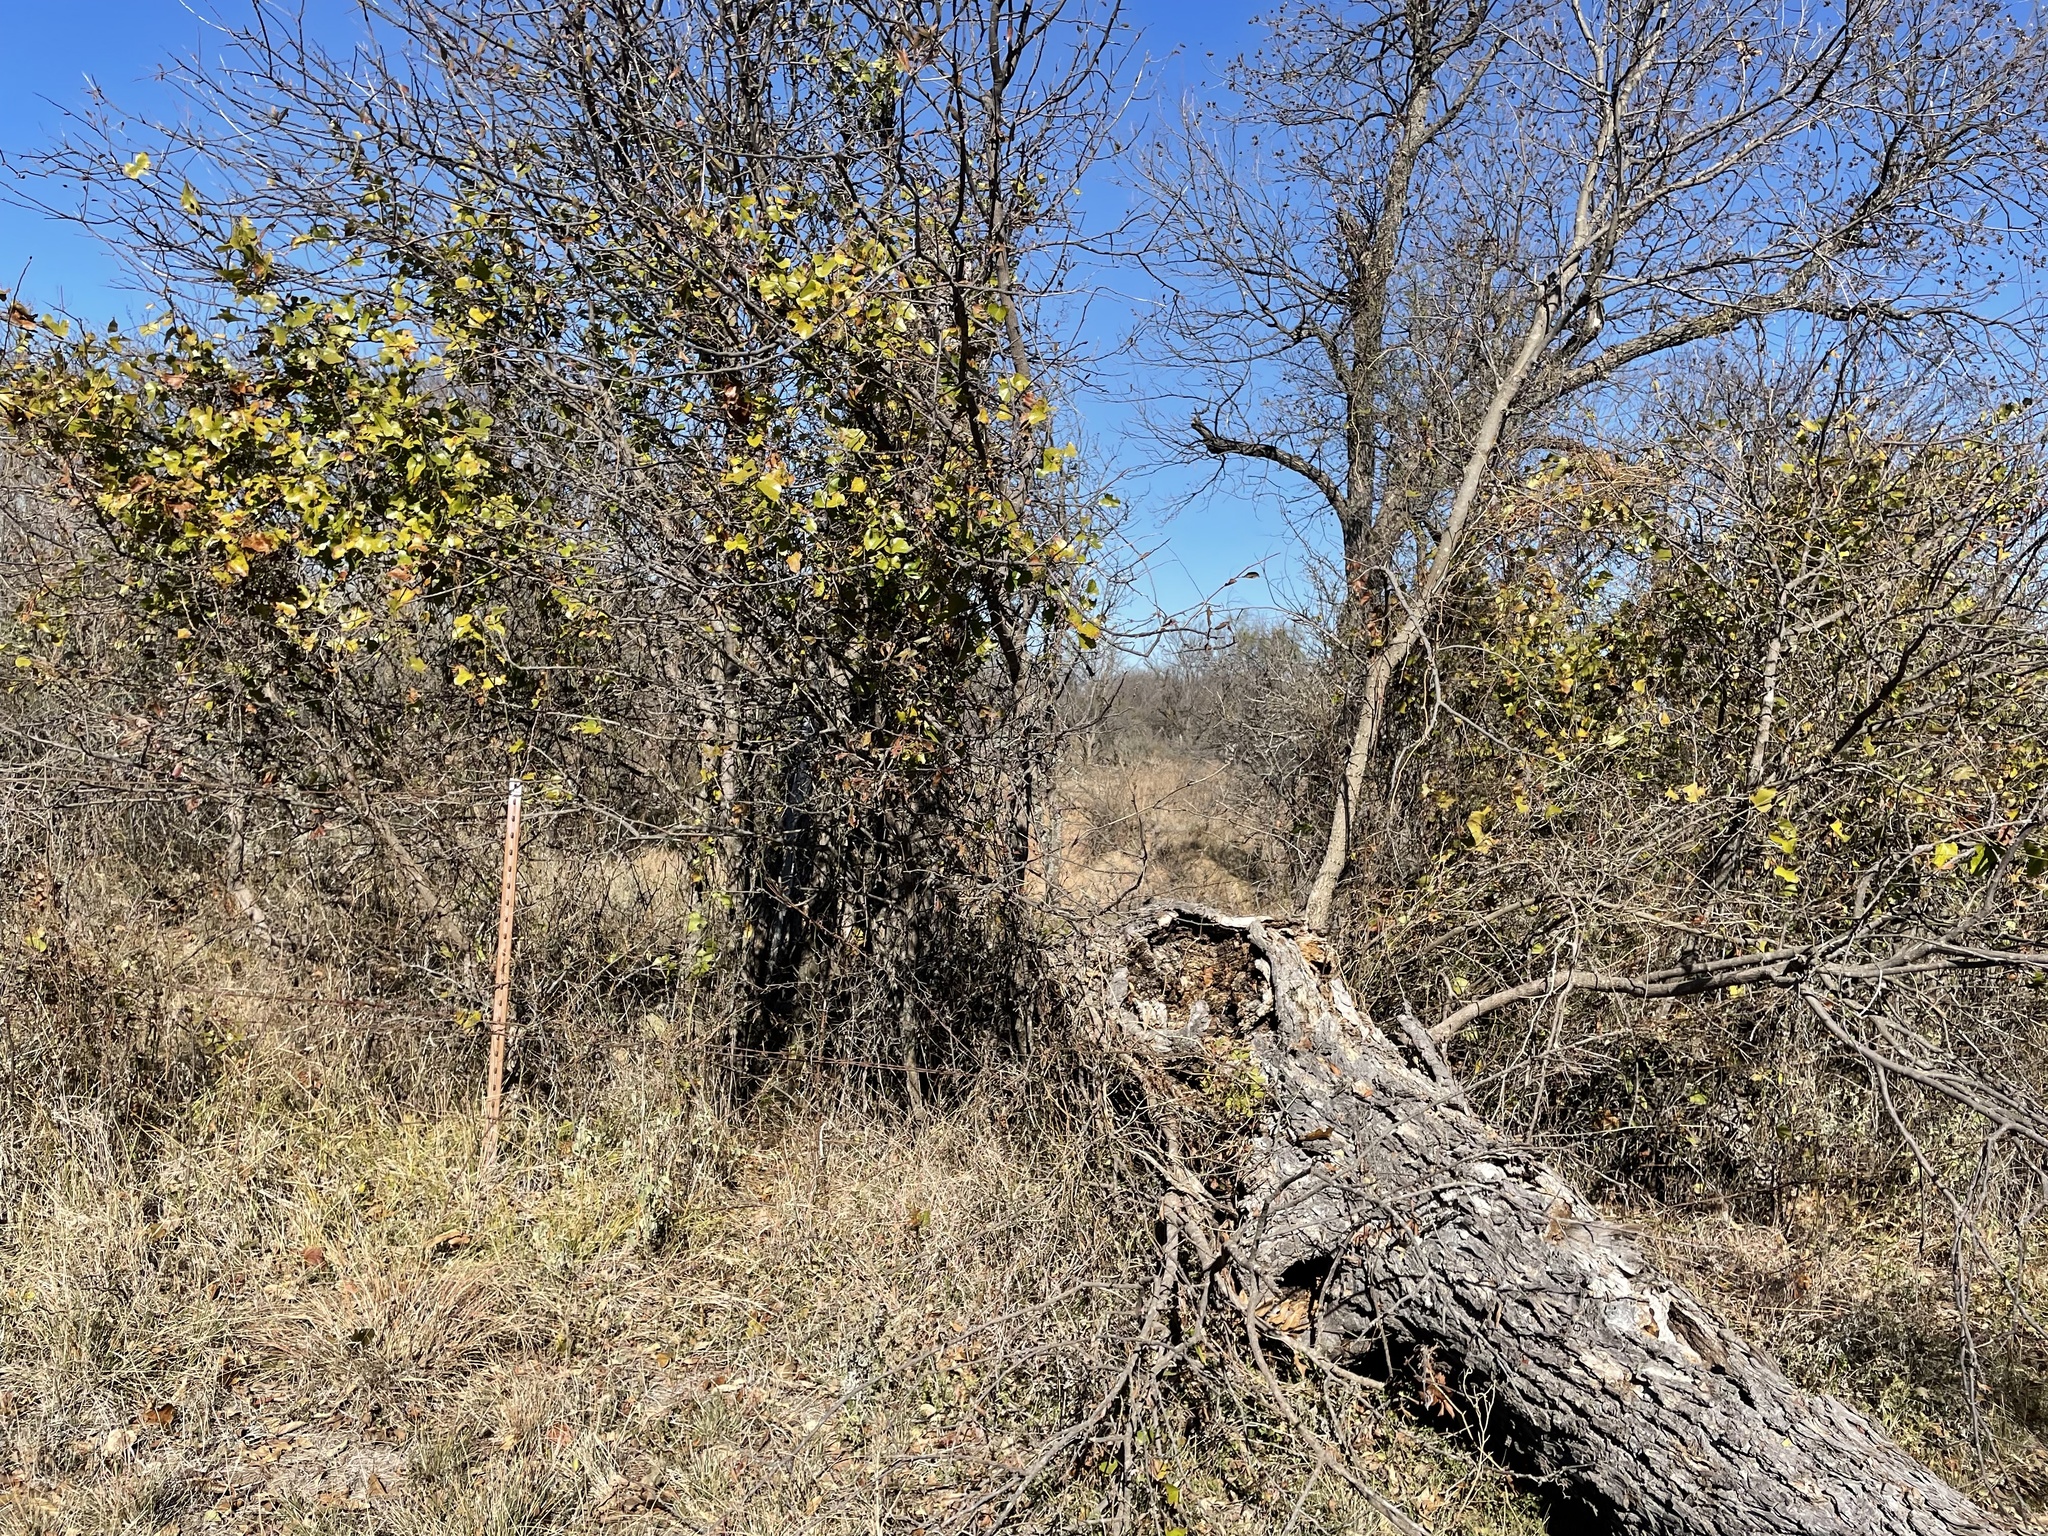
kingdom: Animalia
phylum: Arthropoda
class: Insecta
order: Hymenoptera
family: Formicidae
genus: Crematogaster
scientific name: Crematogaster laeviuscula
